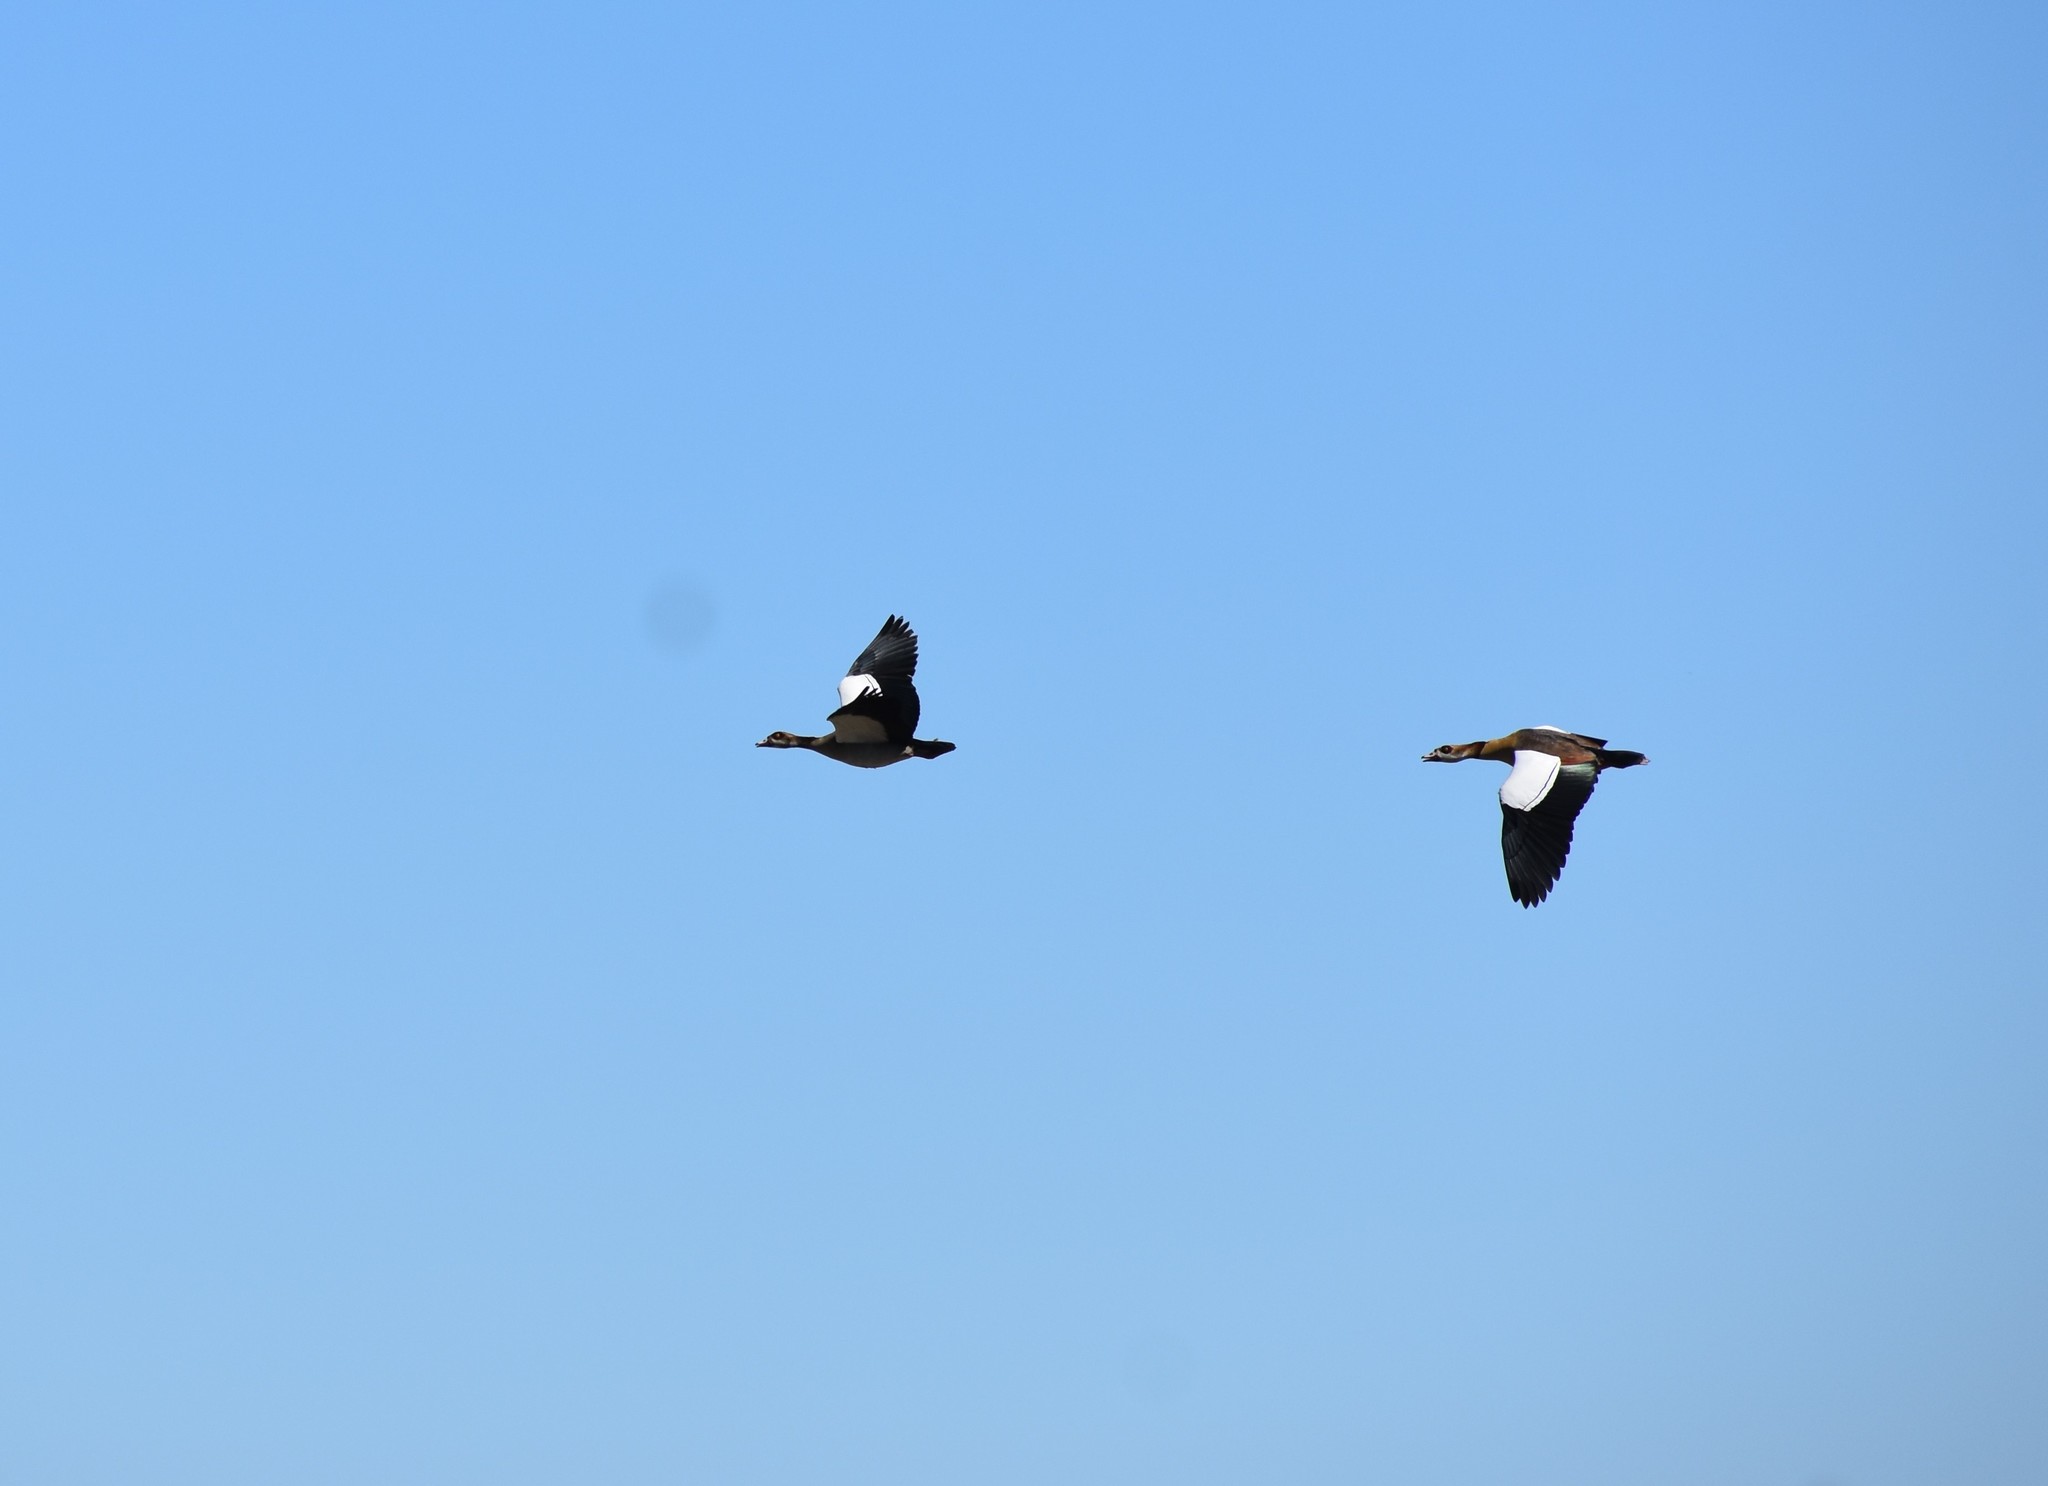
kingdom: Animalia
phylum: Chordata
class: Aves
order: Anseriformes
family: Anatidae
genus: Alopochen
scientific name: Alopochen aegyptiaca
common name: Egyptian goose
